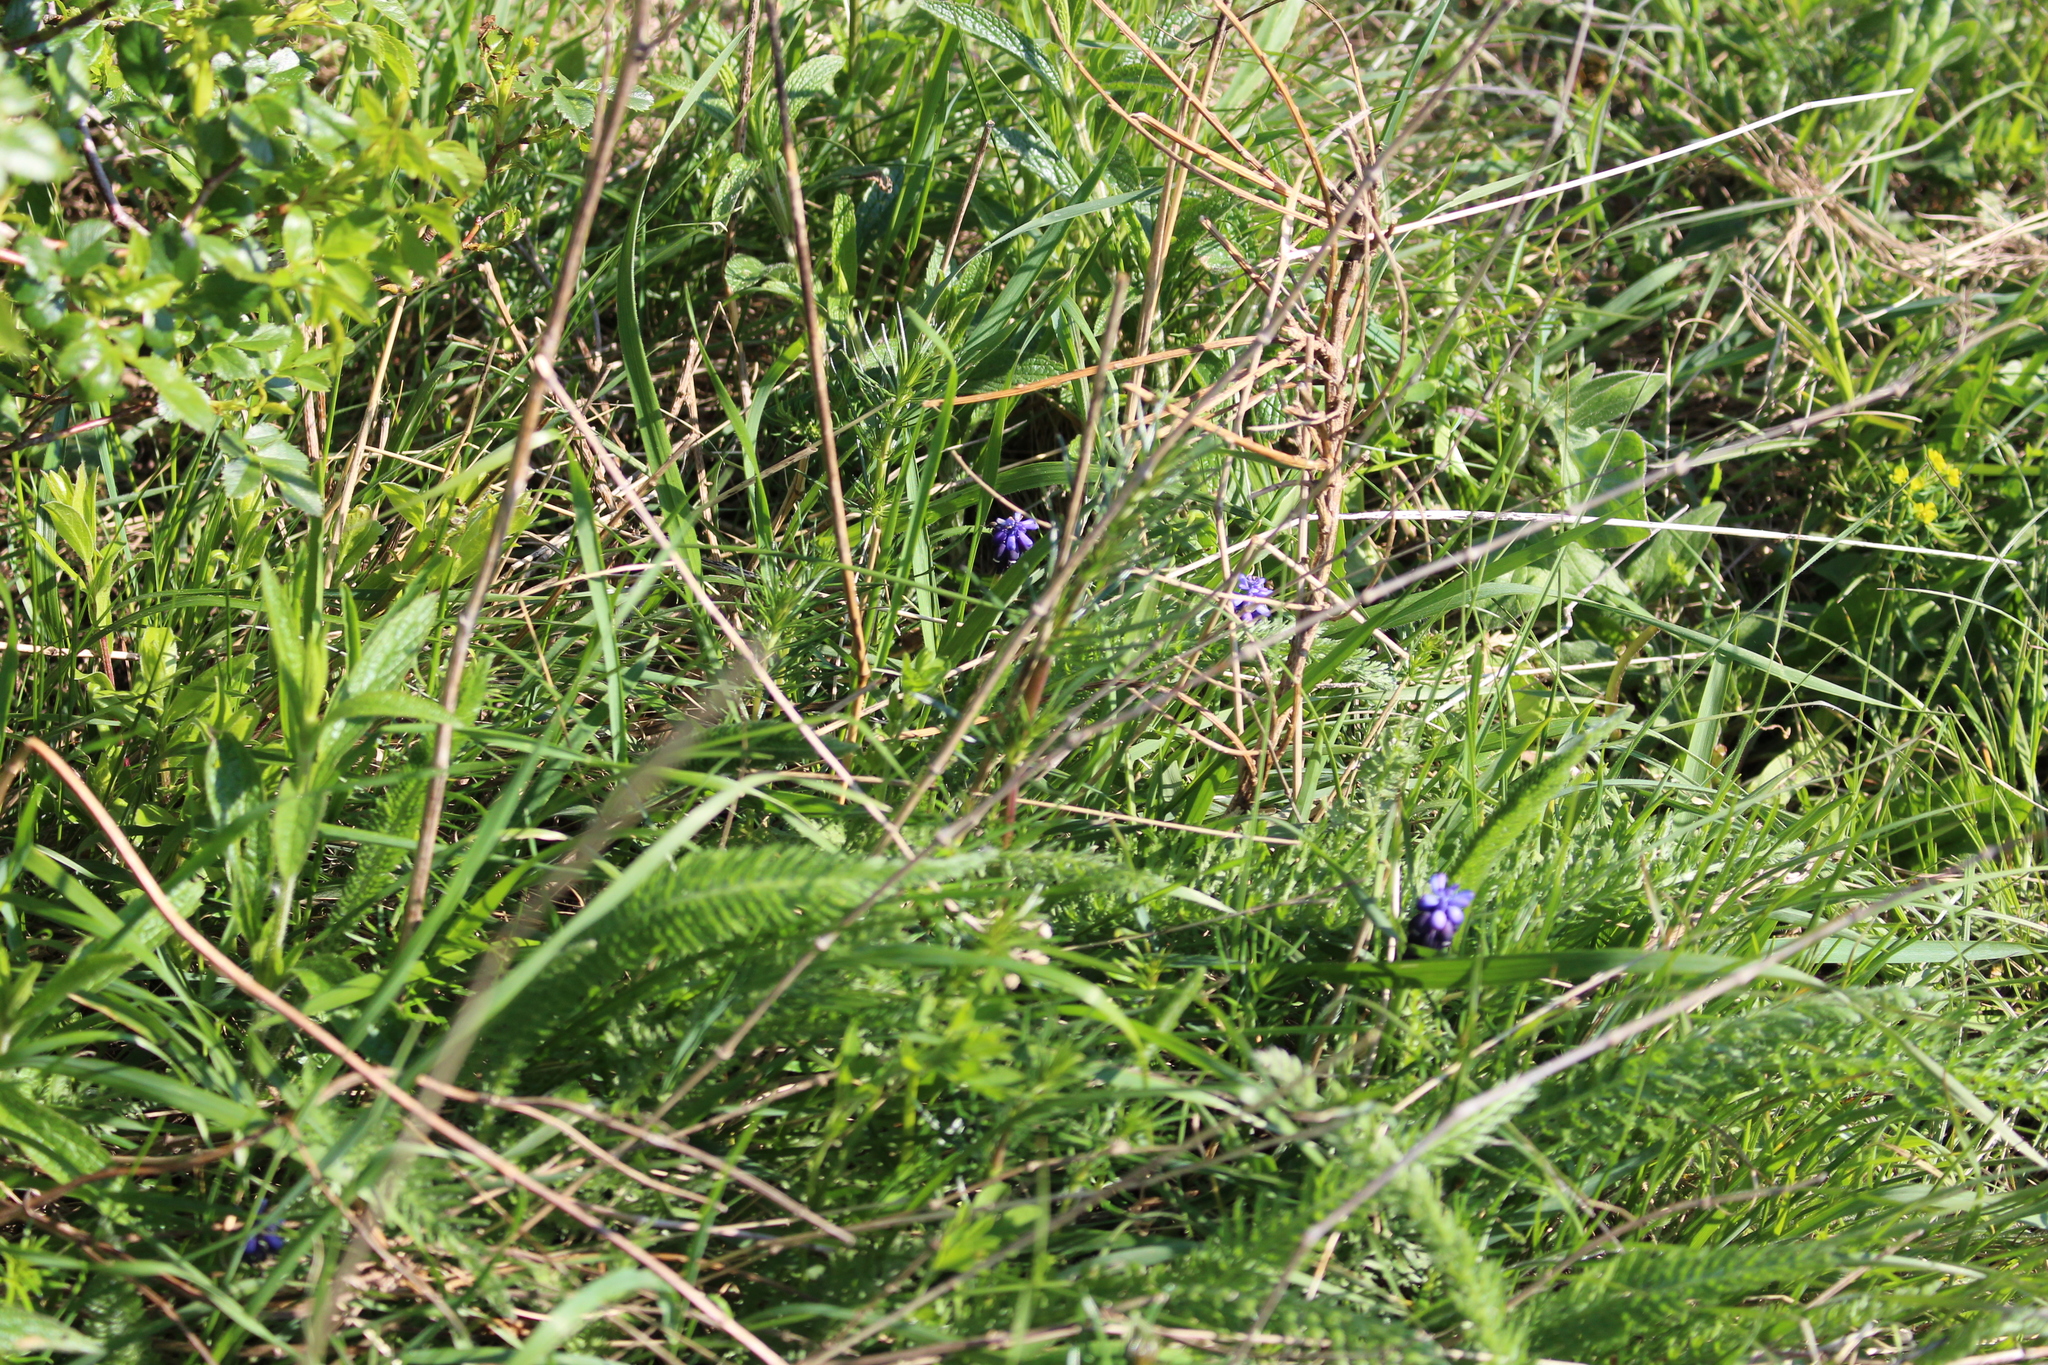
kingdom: Plantae
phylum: Tracheophyta
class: Liliopsida
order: Asparagales
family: Asparagaceae
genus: Muscari
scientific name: Muscari neglectum
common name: Grape-hyacinth
